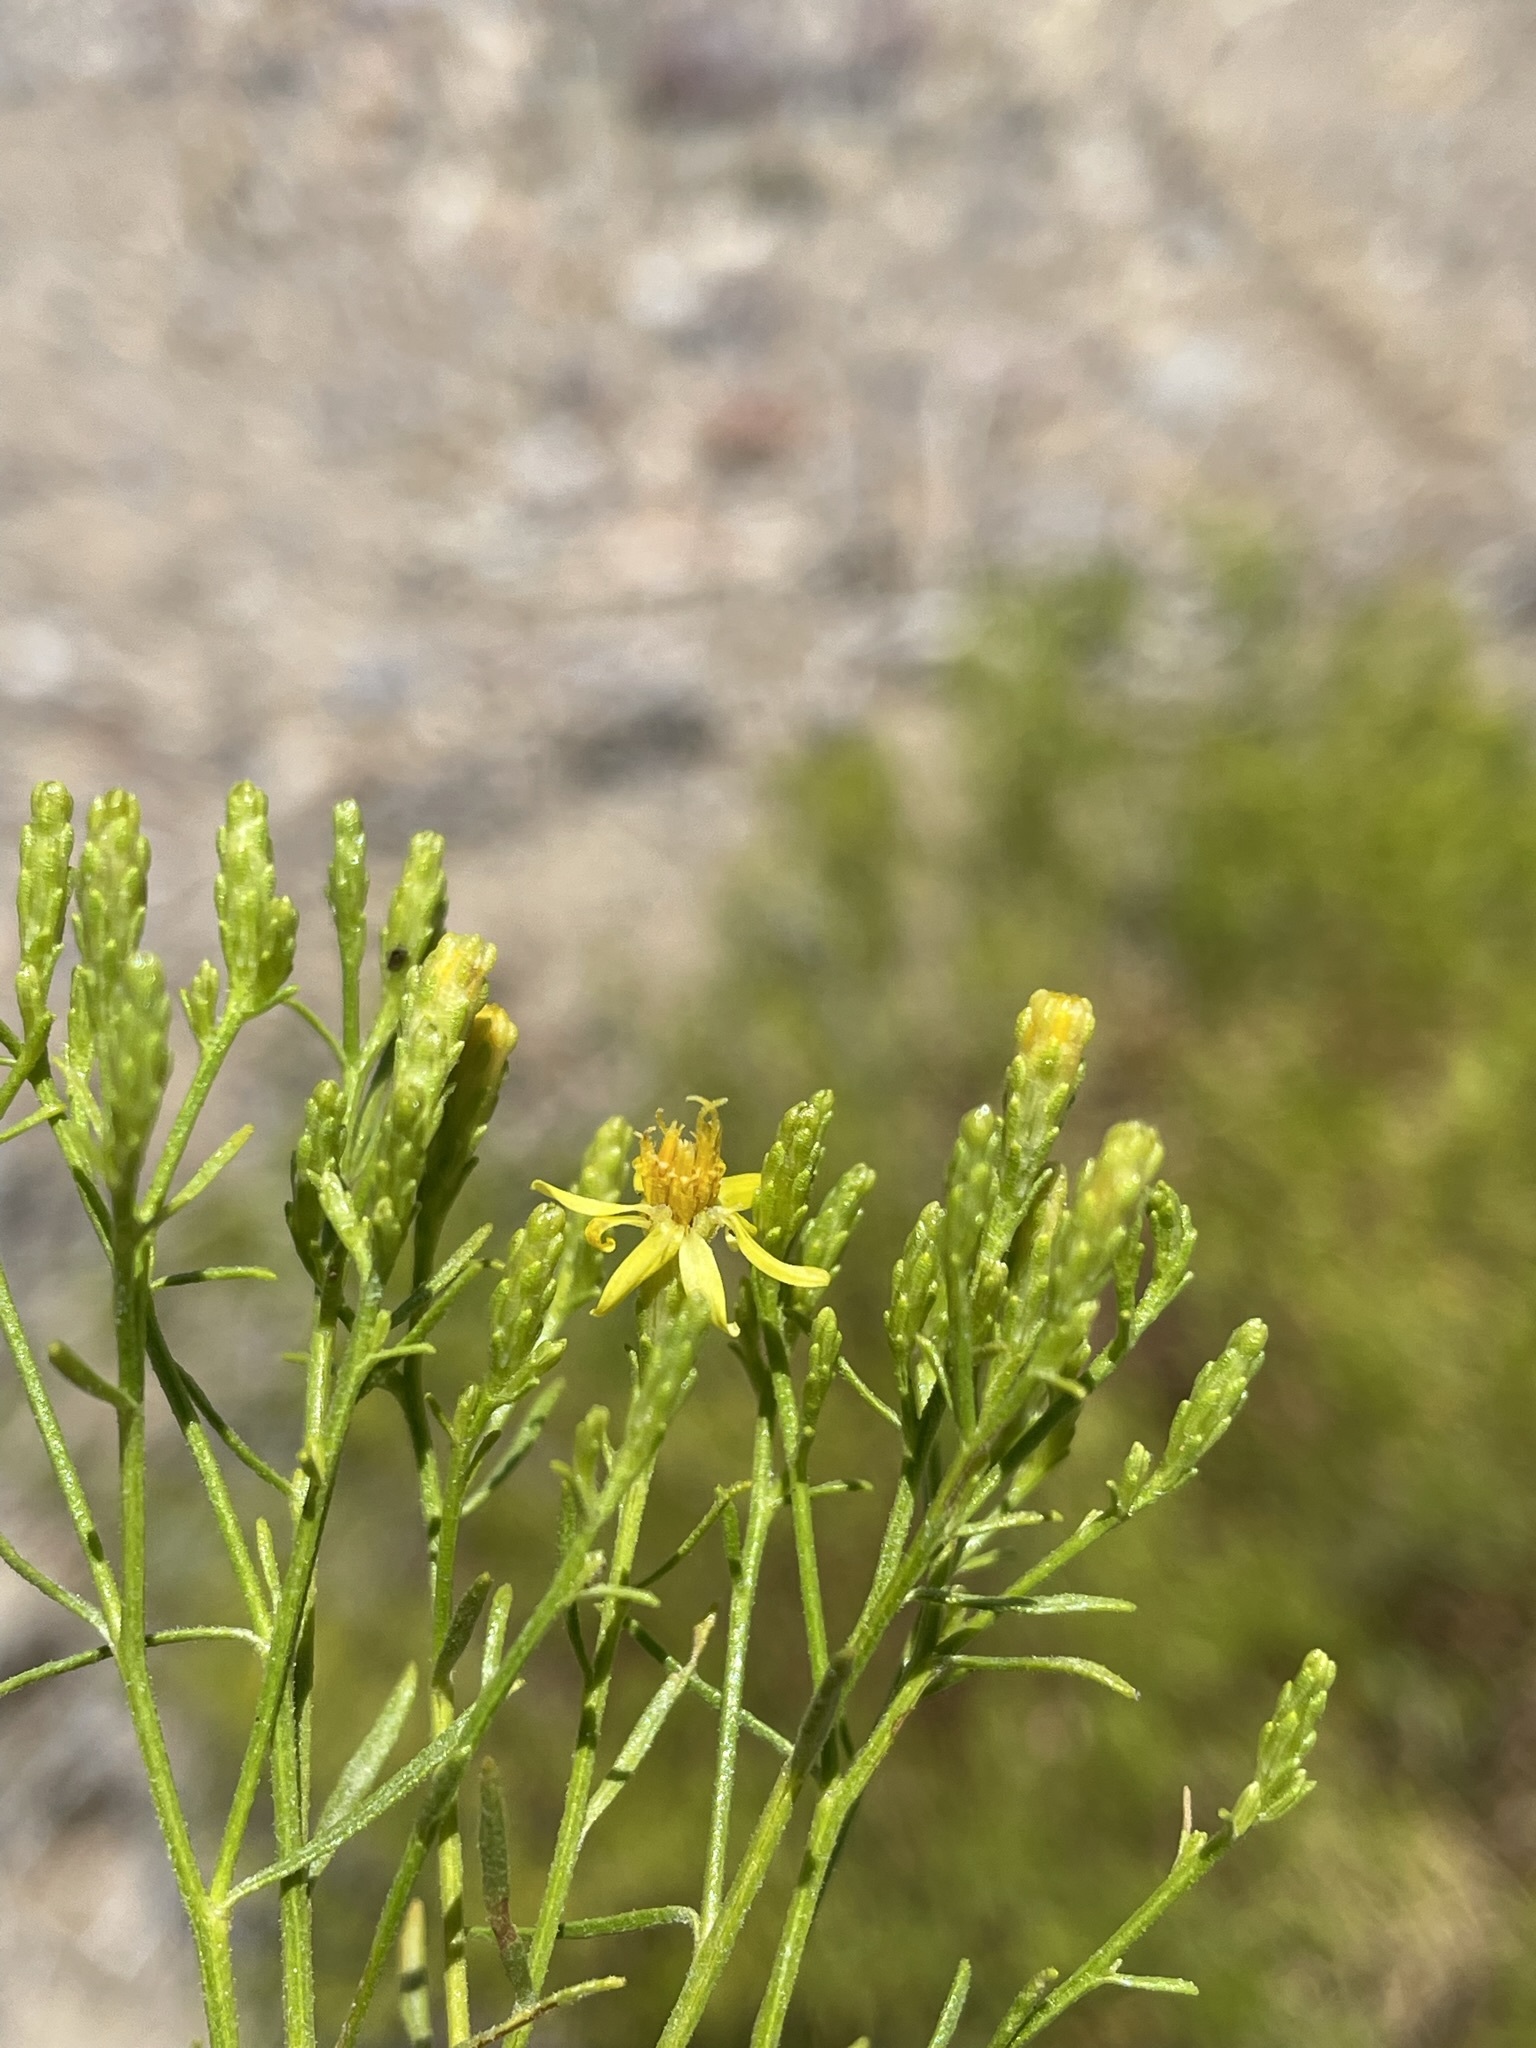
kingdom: Plantae
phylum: Tracheophyta
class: Magnoliopsida
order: Asterales
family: Asteraceae
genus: Gutierrezia
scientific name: Gutierrezia sarothrae
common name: Broom snakeweed
